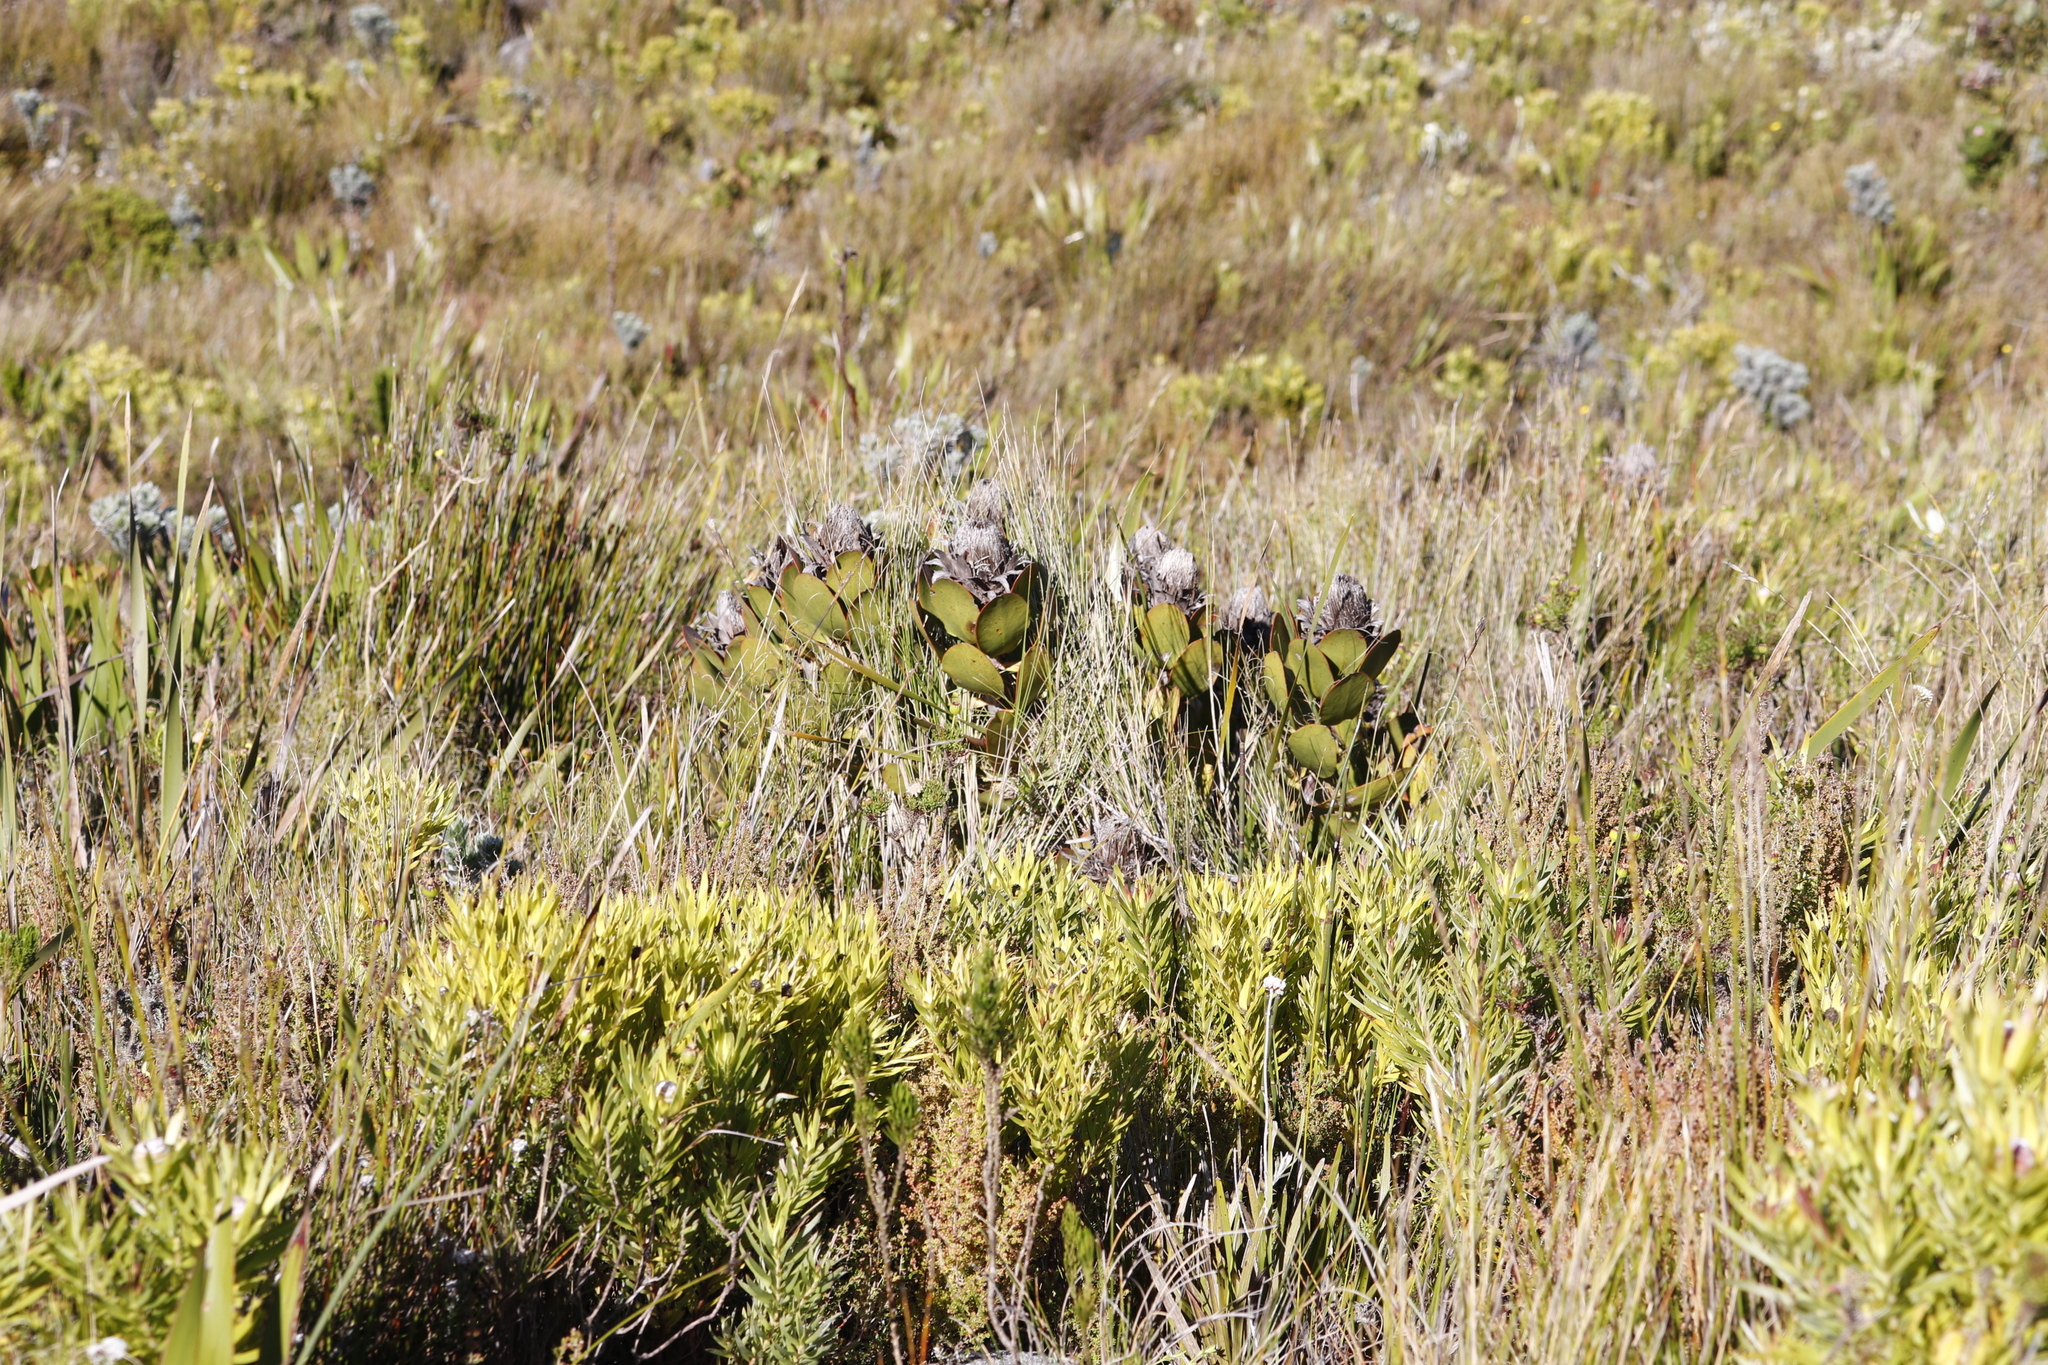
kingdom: Plantae
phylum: Tracheophyta
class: Magnoliopsida
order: Proteales
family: Proteaceae
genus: Protea
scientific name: Protea speciosa
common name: Brown-beard sugarbush
